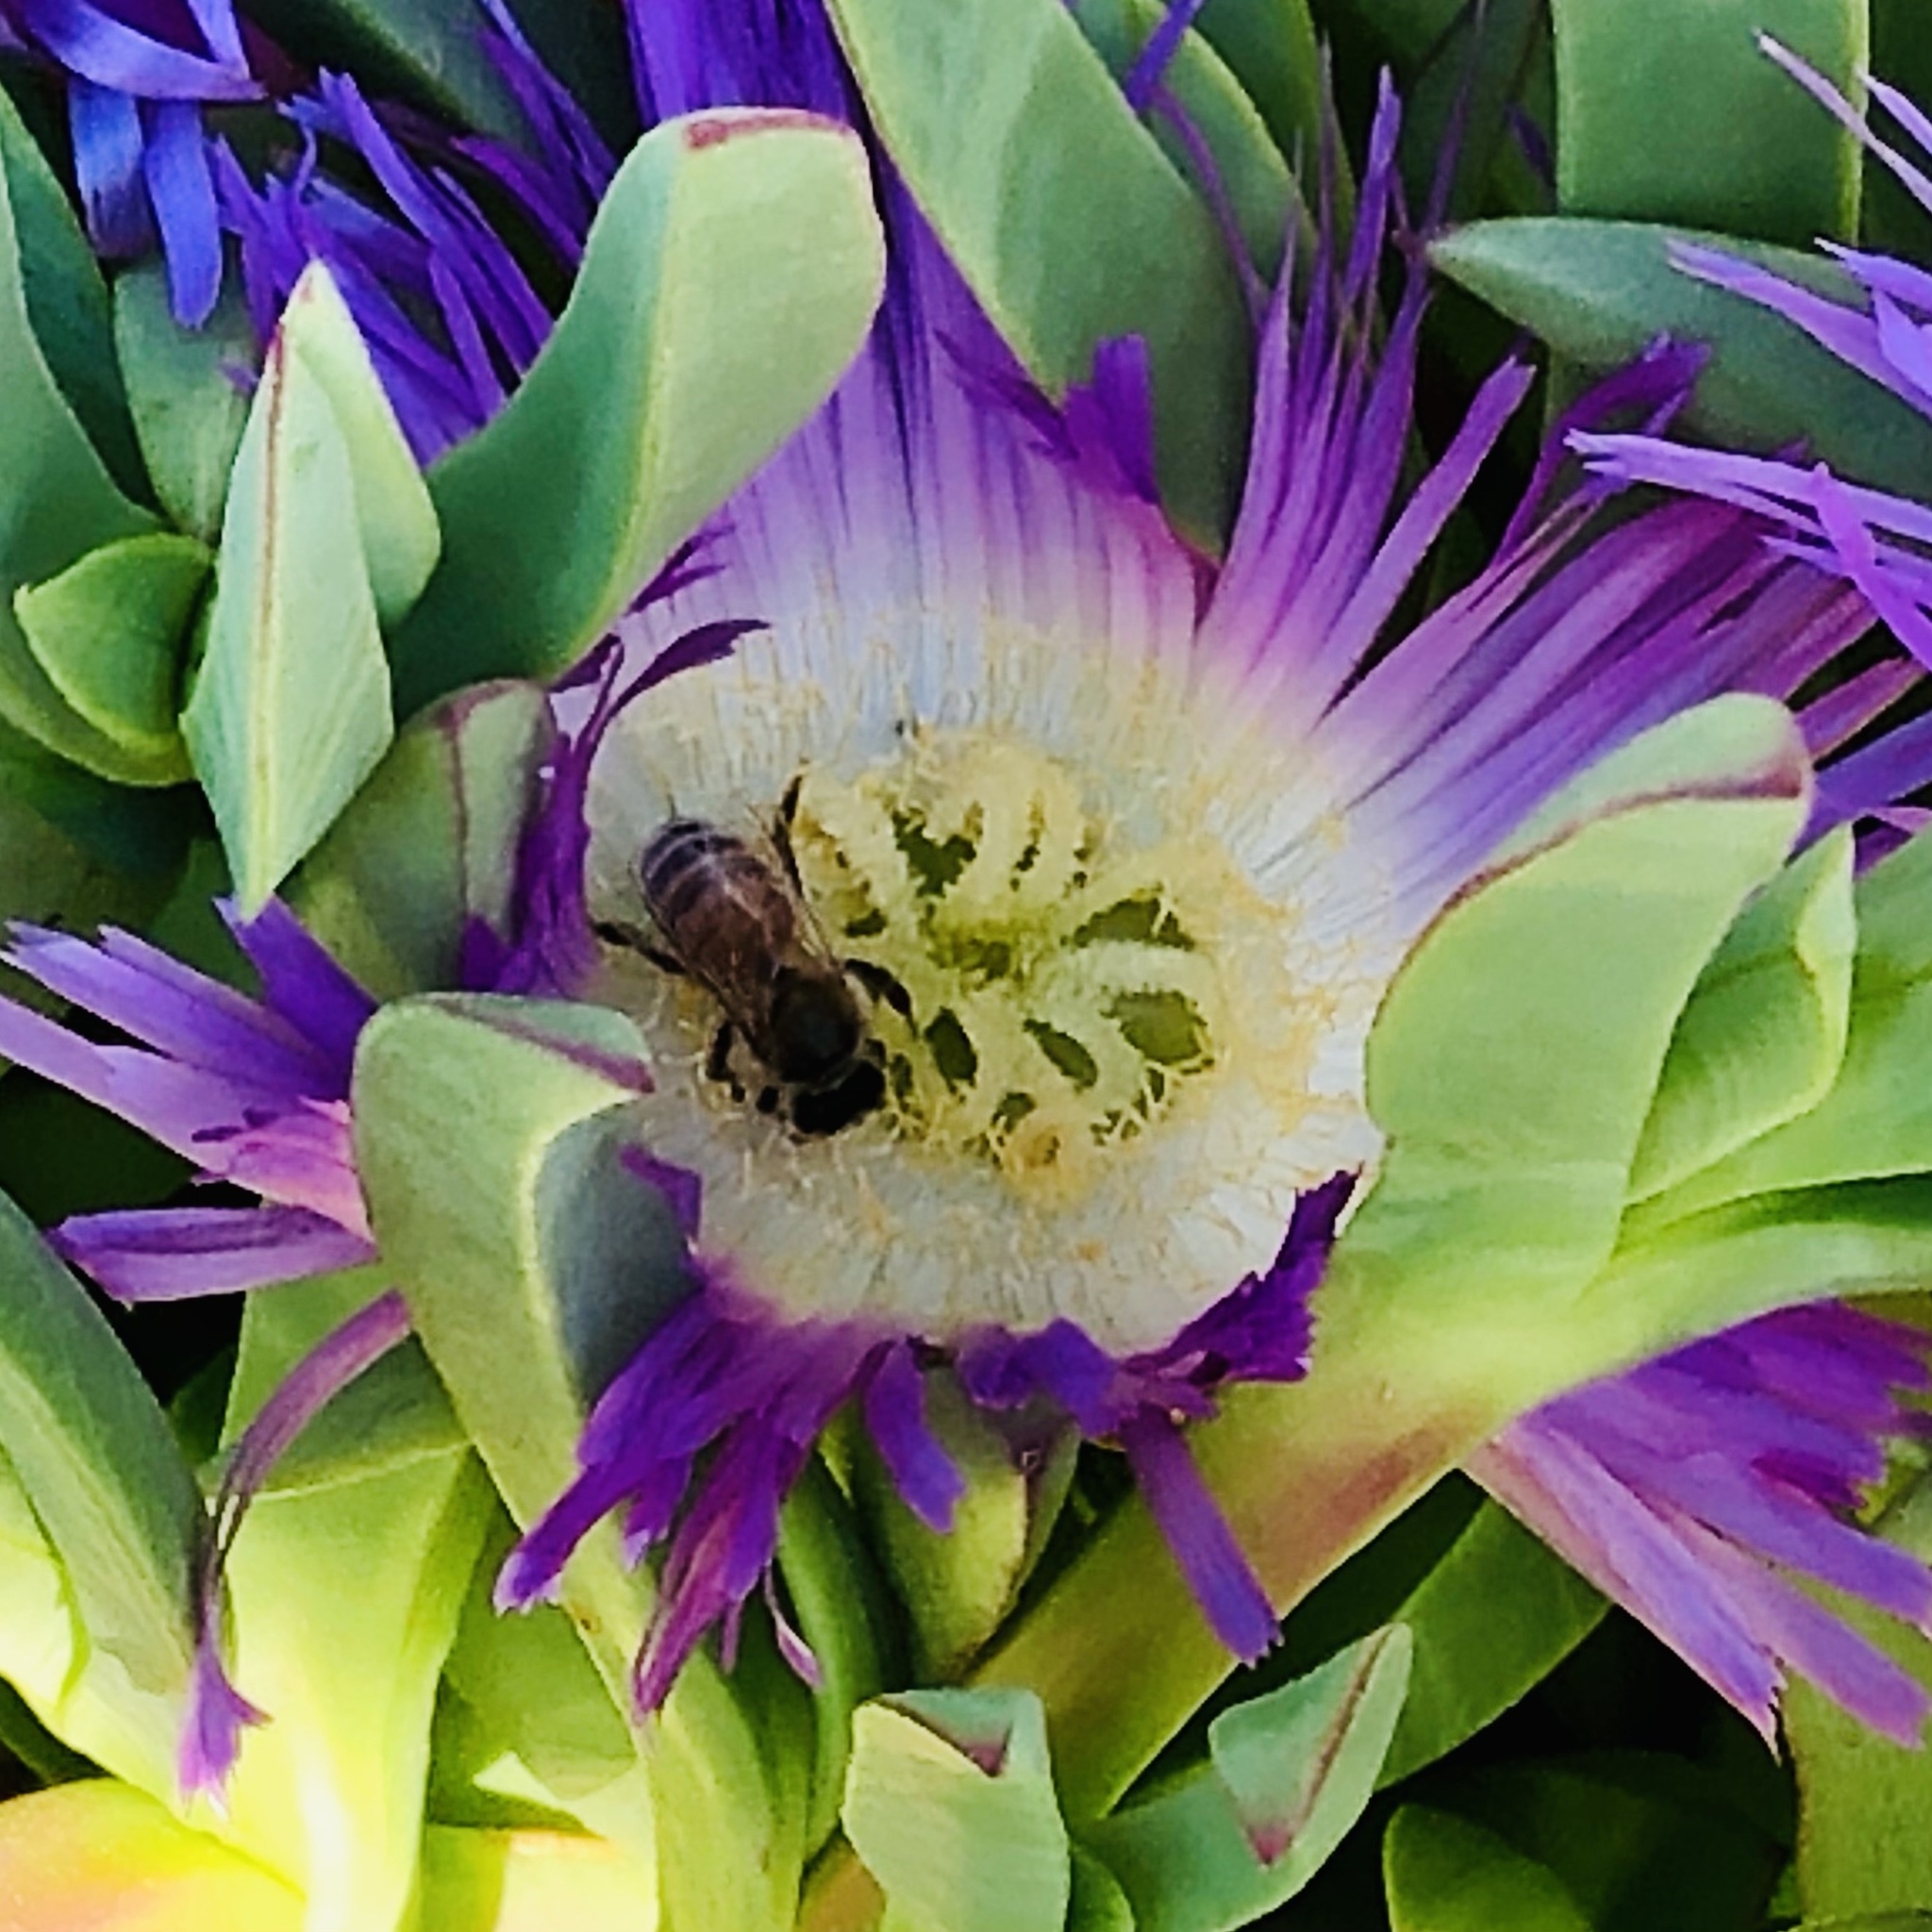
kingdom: Animalia
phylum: Arthropoda
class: Insecta
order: Hymenoptera
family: Apidae
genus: Apis
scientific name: Apis mellifera
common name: Honey bee
